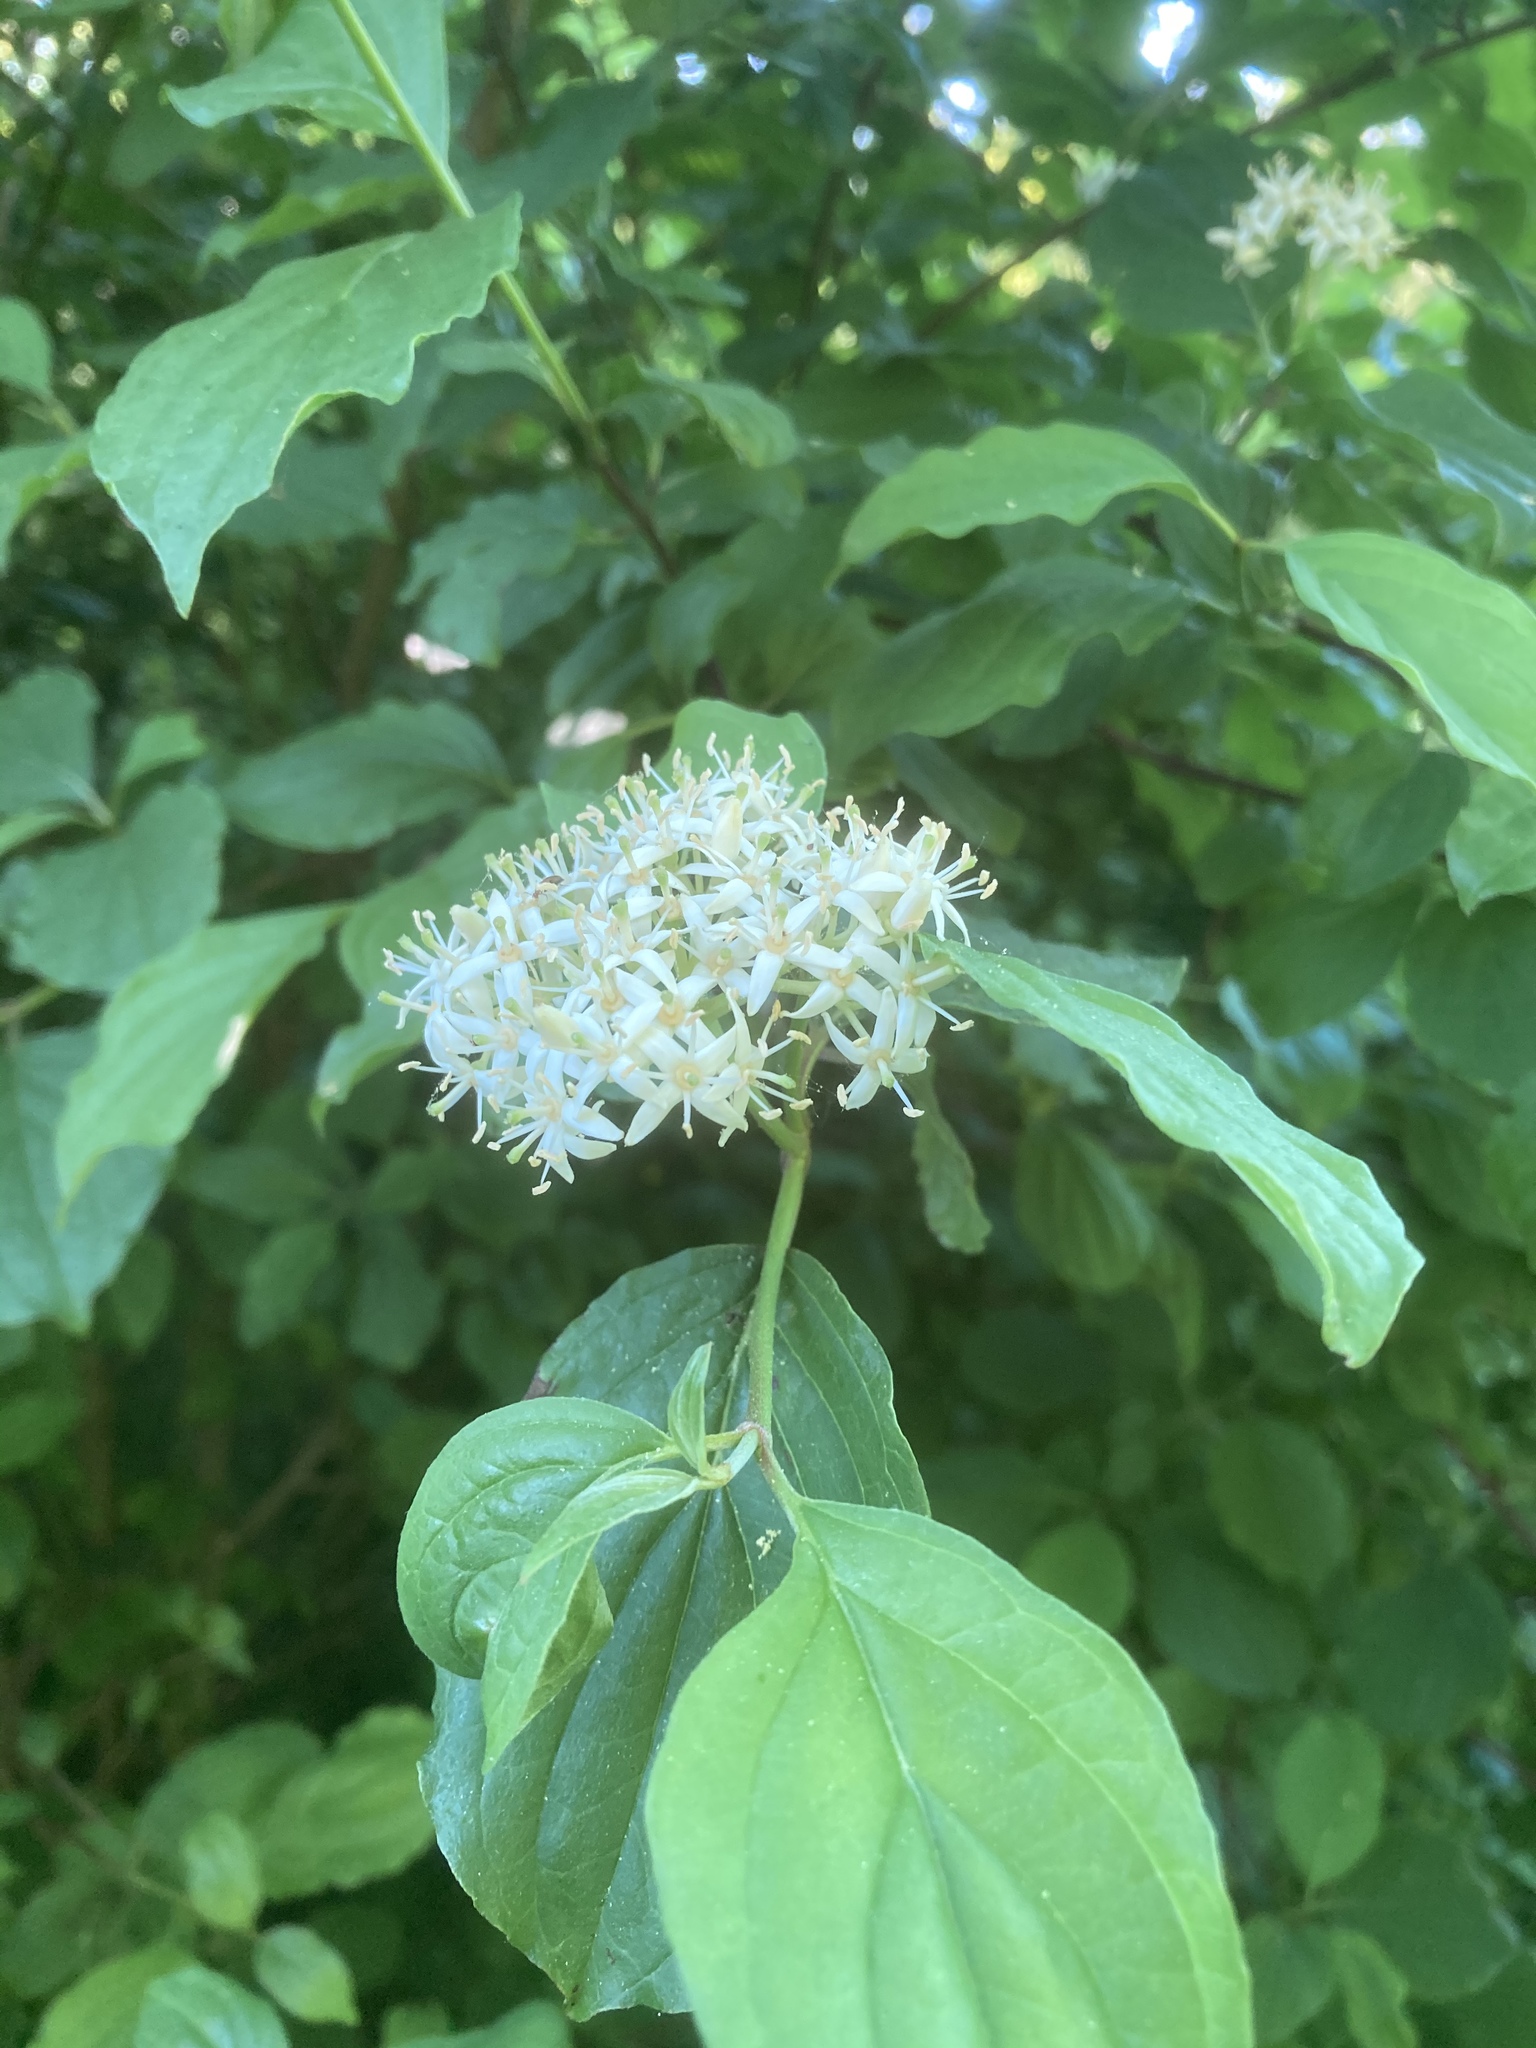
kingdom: Plantae
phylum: Tracheophyta
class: Magnoliopsida
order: Cornales
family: Cornaceae
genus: Cornus
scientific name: Cornus sanguinea
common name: Dogwood
